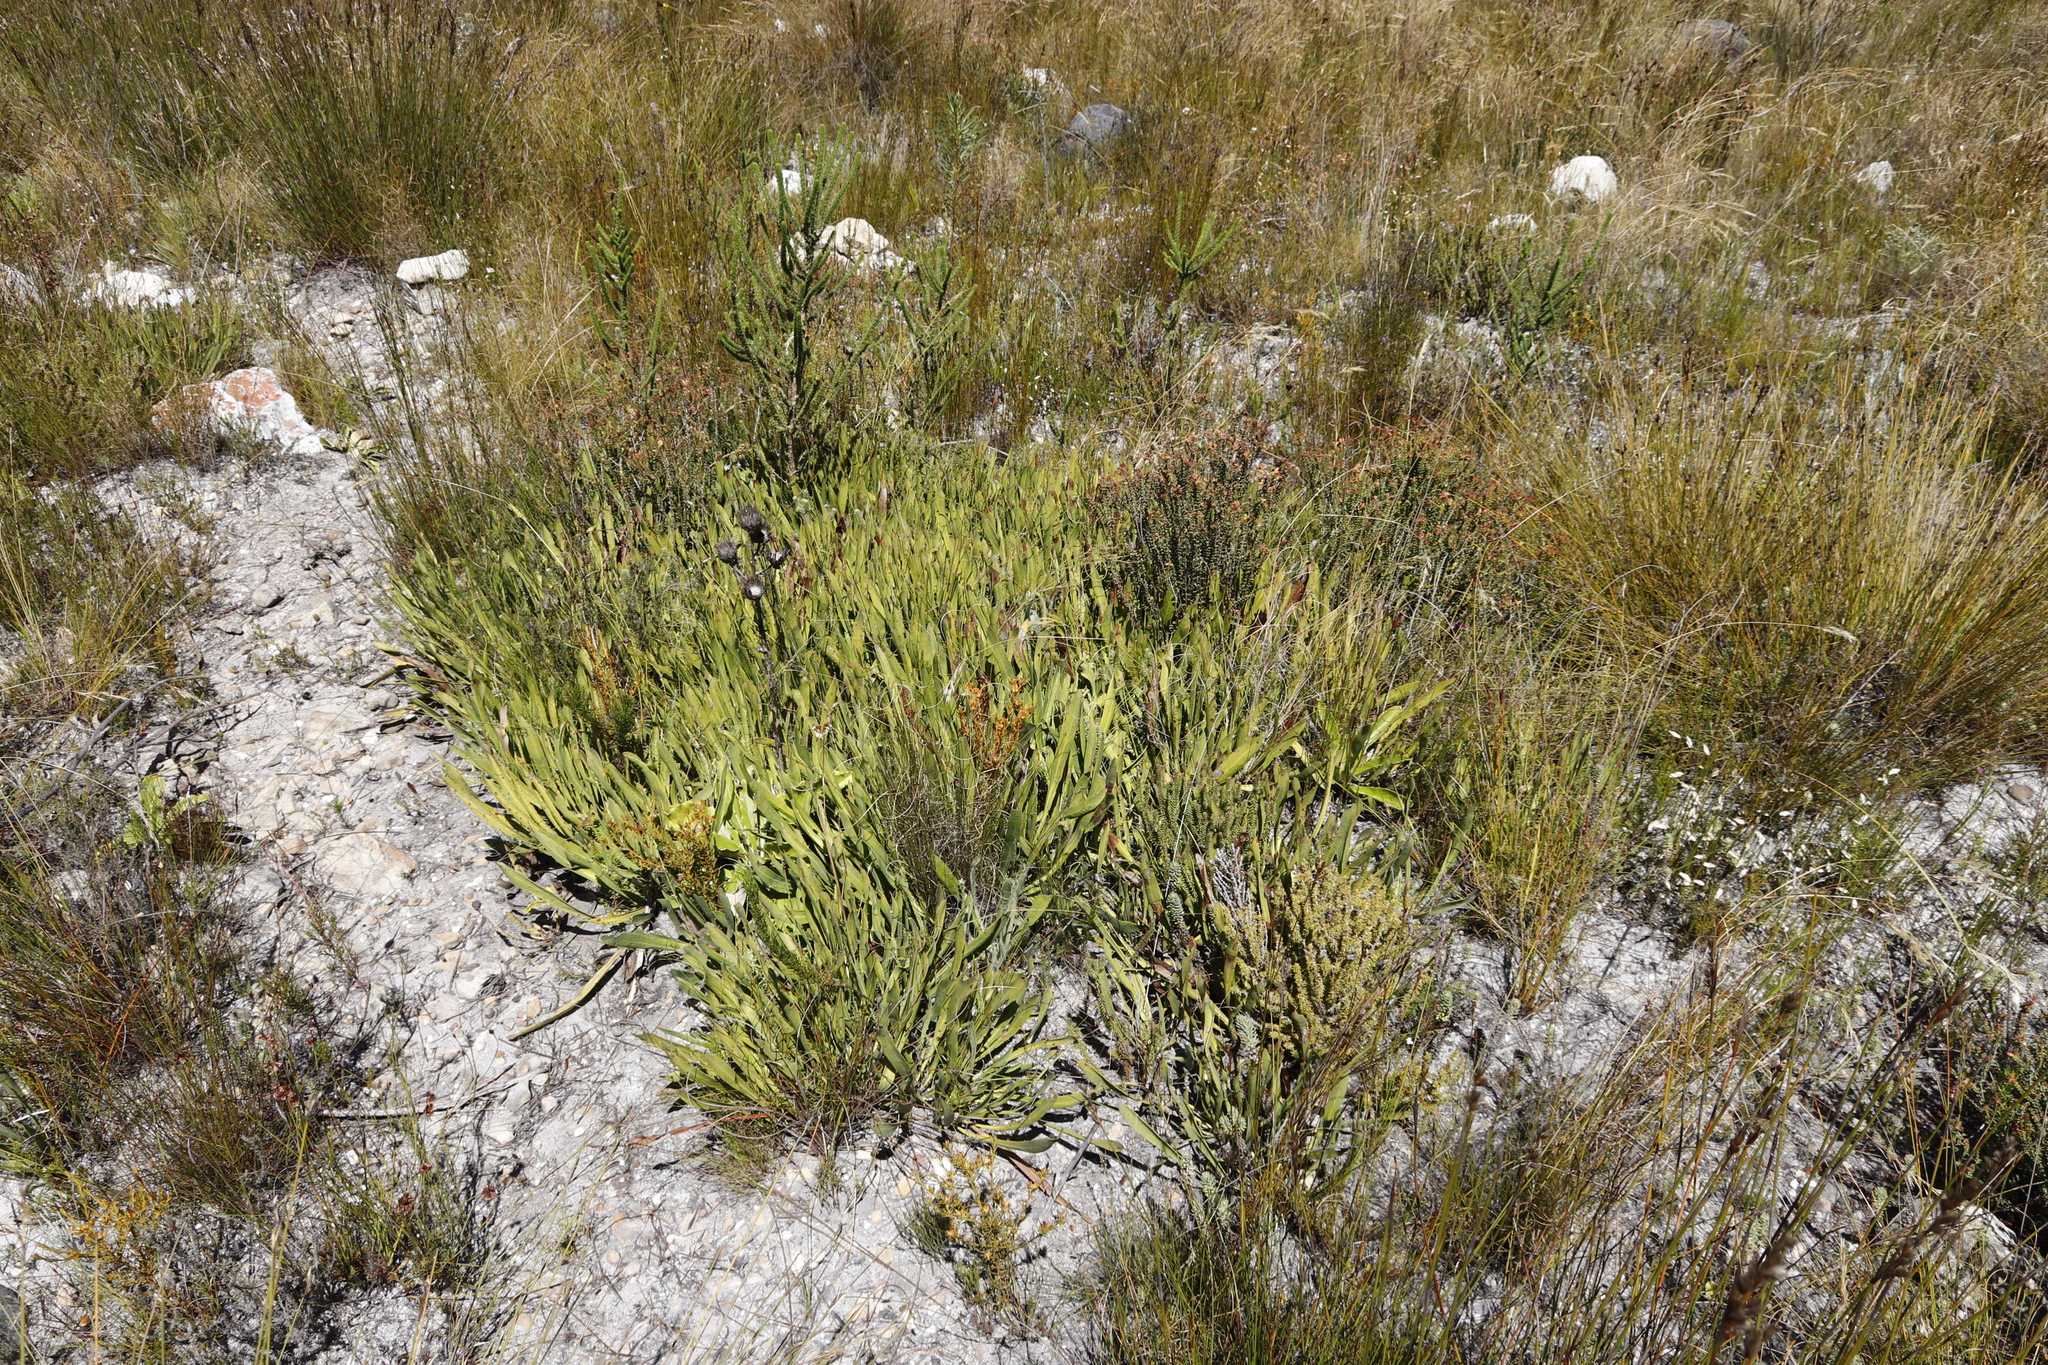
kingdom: Plantae
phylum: Tracheophyta
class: Magnoliopsida
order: Proteales
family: Proteaceae
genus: Protea
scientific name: Protea scabra
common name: Sandpaper-leaf sugarbush
